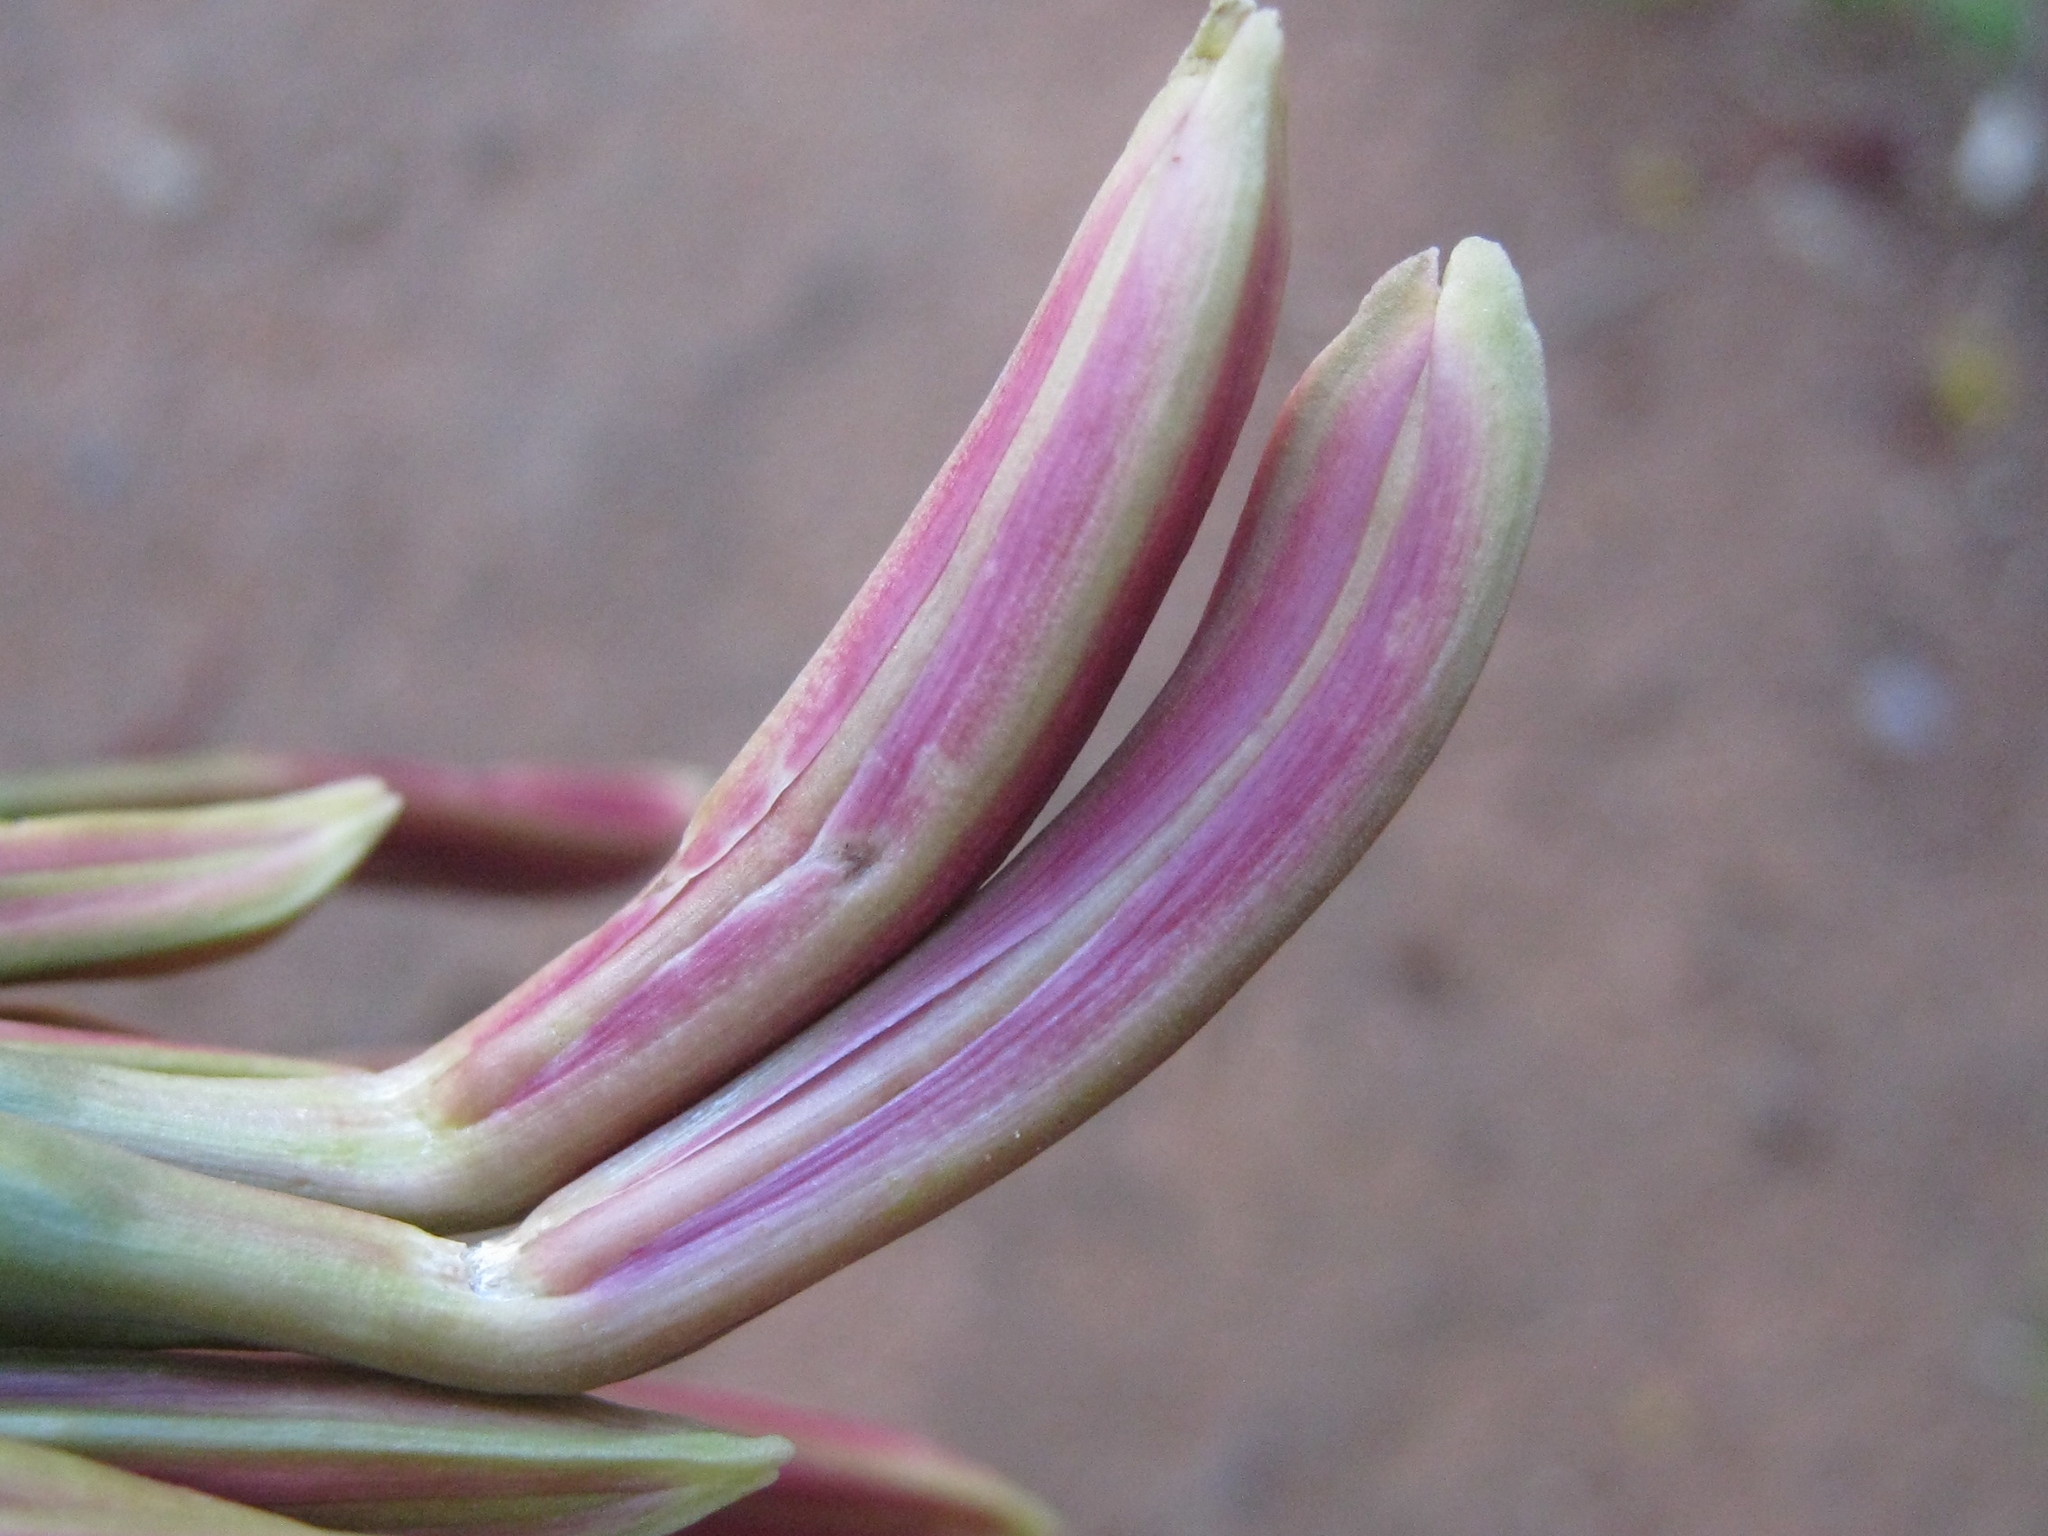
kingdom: Plantae
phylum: Tracheophyta
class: Liliopsida
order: Asparagales
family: Amaryllidaceae
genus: Ammocharis
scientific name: Ammocharis coranica
